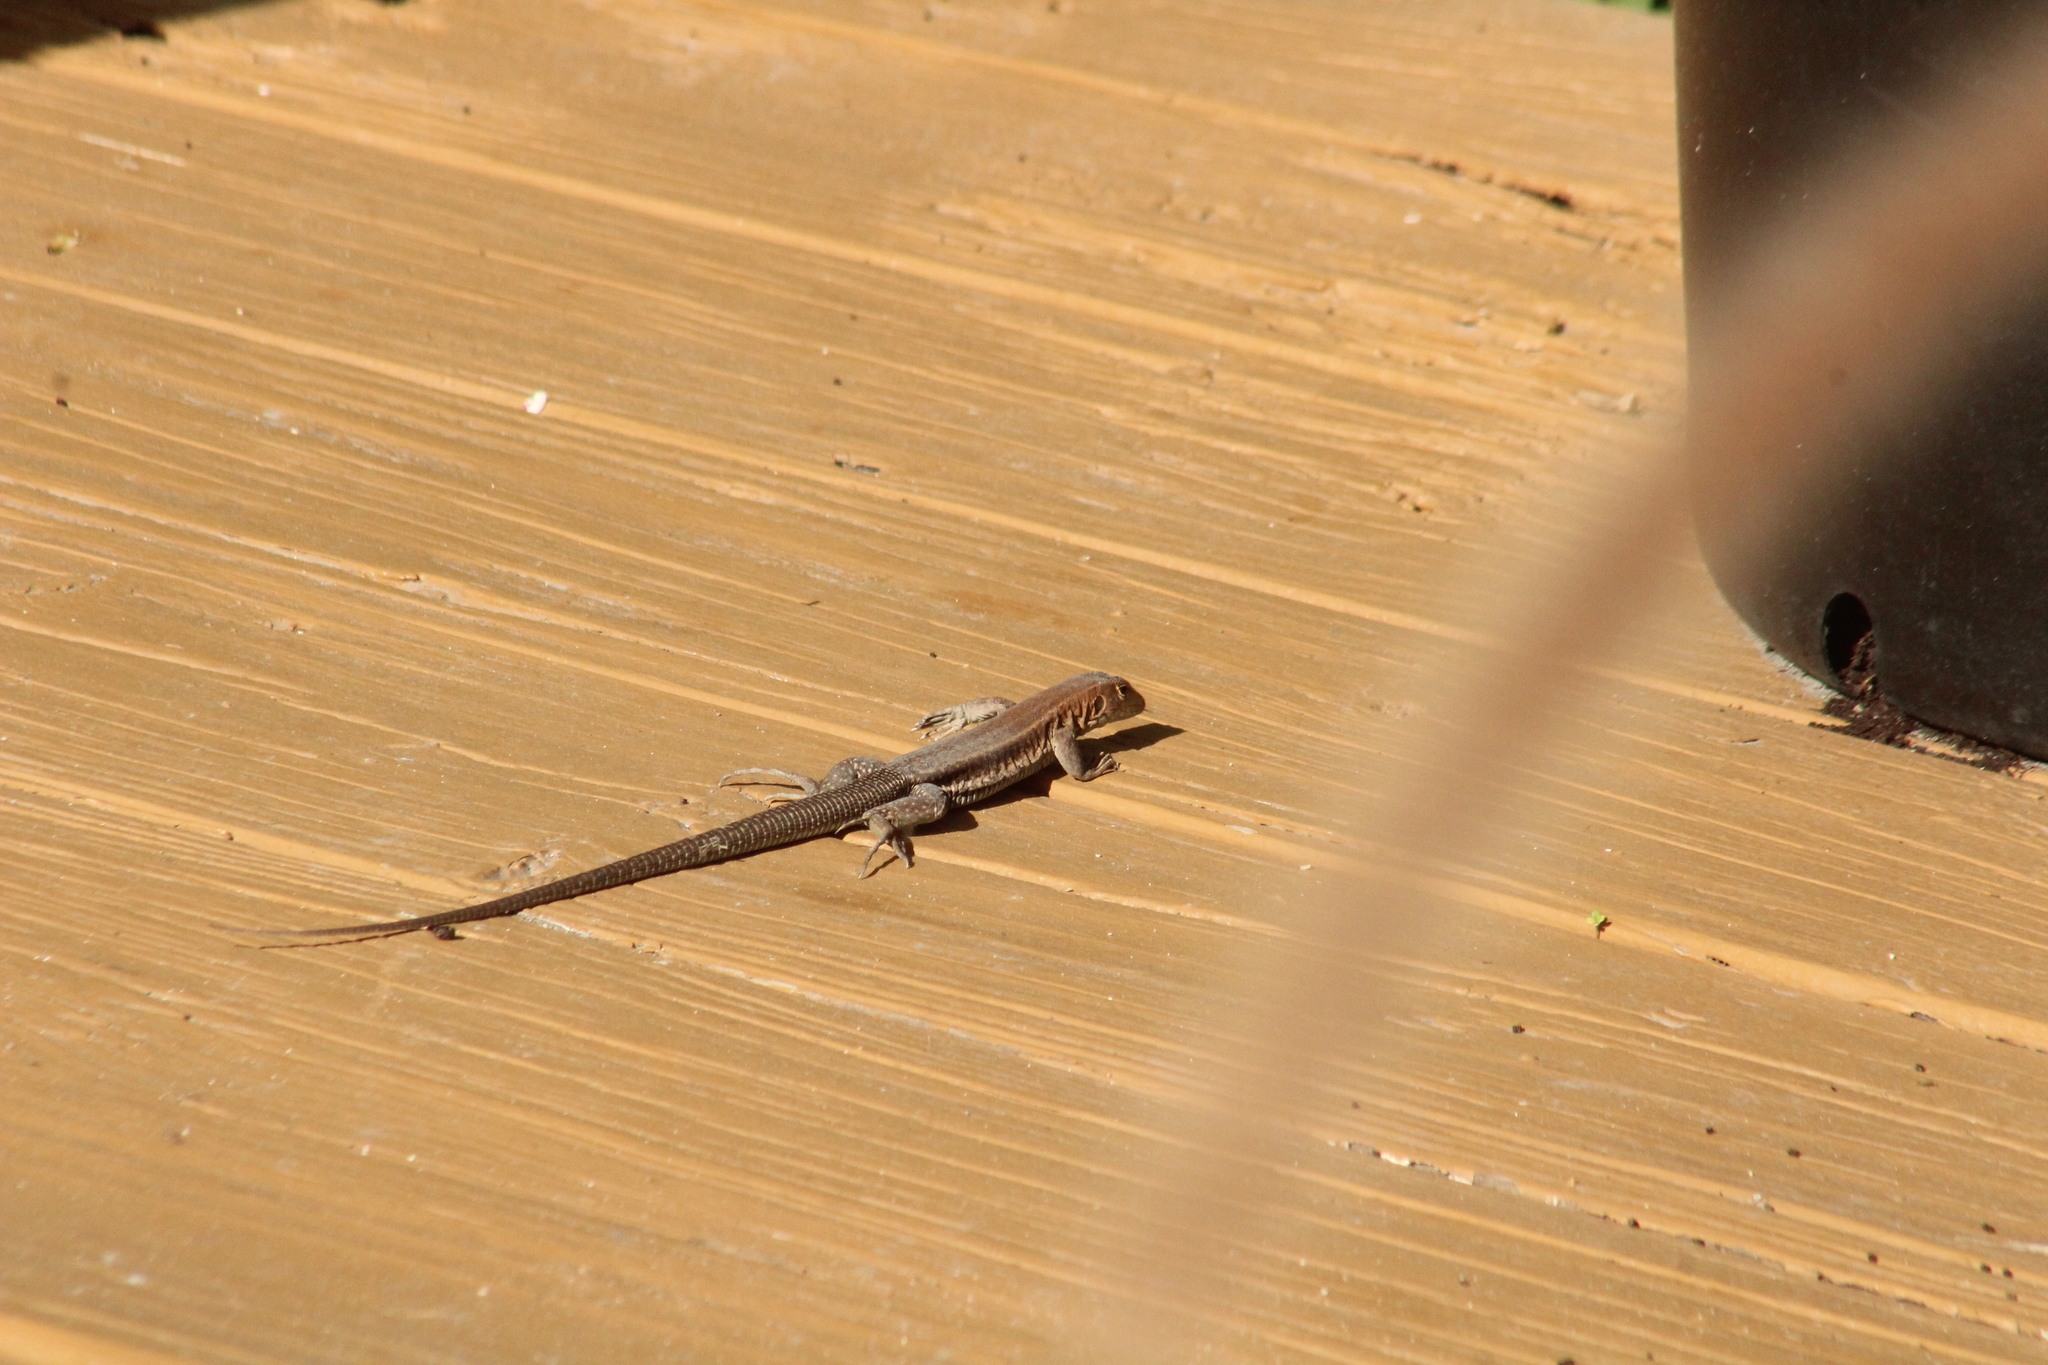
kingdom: Animalia
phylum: Chordata
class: Squamata
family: Teiidae
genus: Pholidoscelis
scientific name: Pholidoscelis plei
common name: Anguilla bank ameiva
